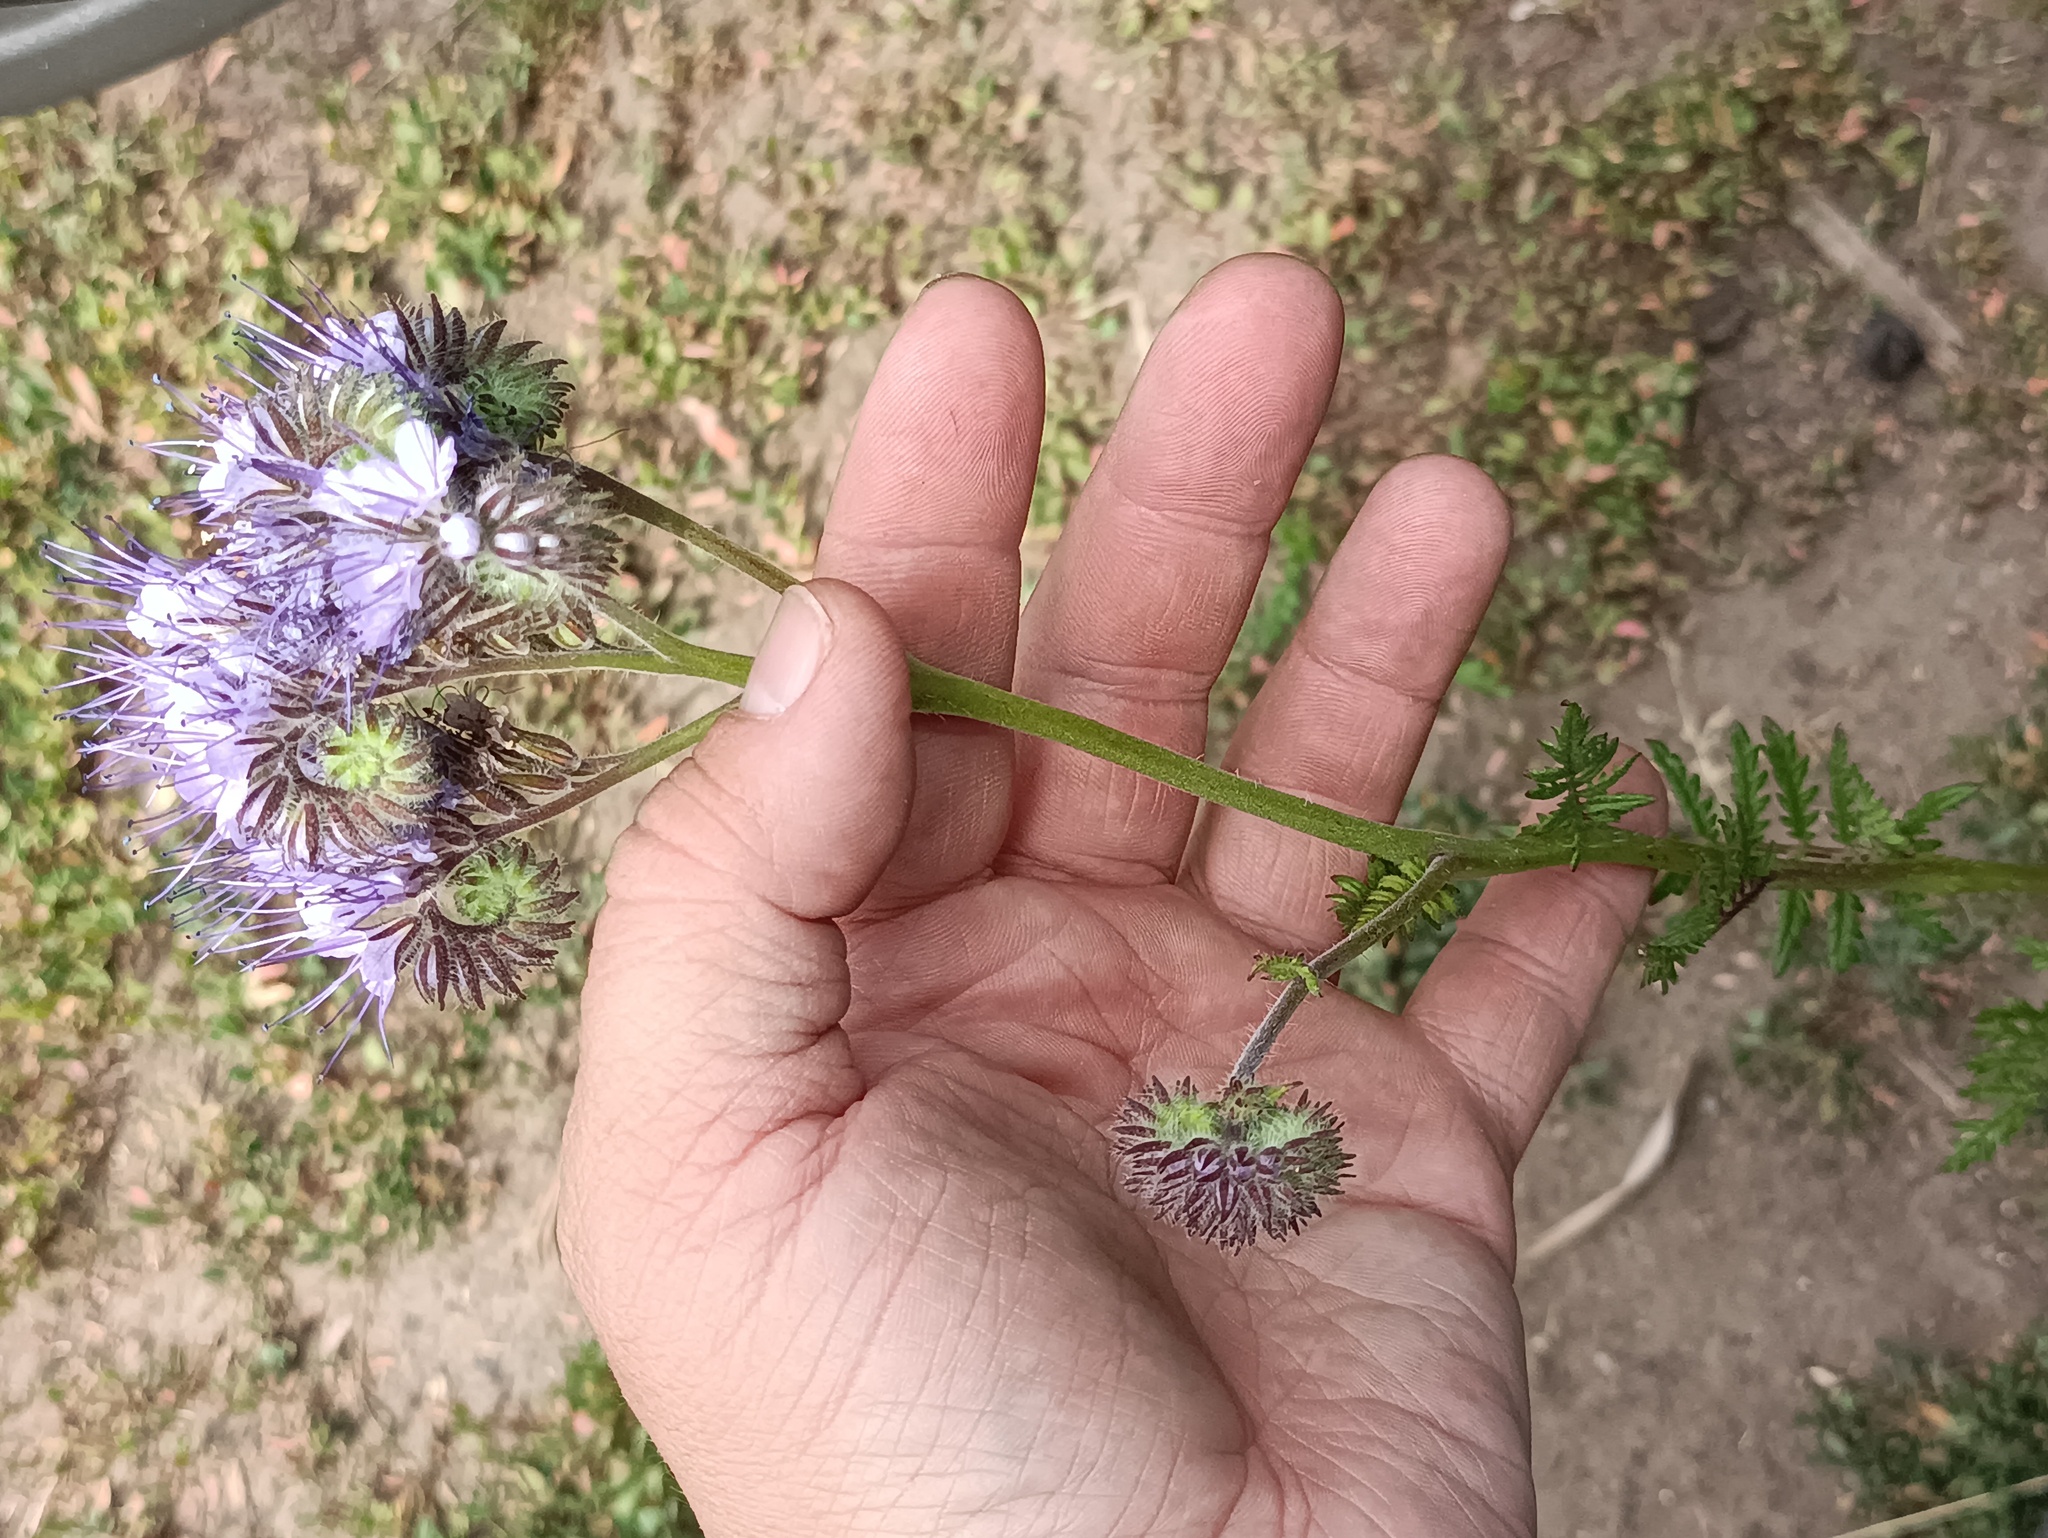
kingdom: Plantae
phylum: Tracheophyta
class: Magnoliopsida
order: Boraginales
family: Hydrophyllaceae
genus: Phacelia
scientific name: Phacelia tanacetifolia
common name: Phacelia
